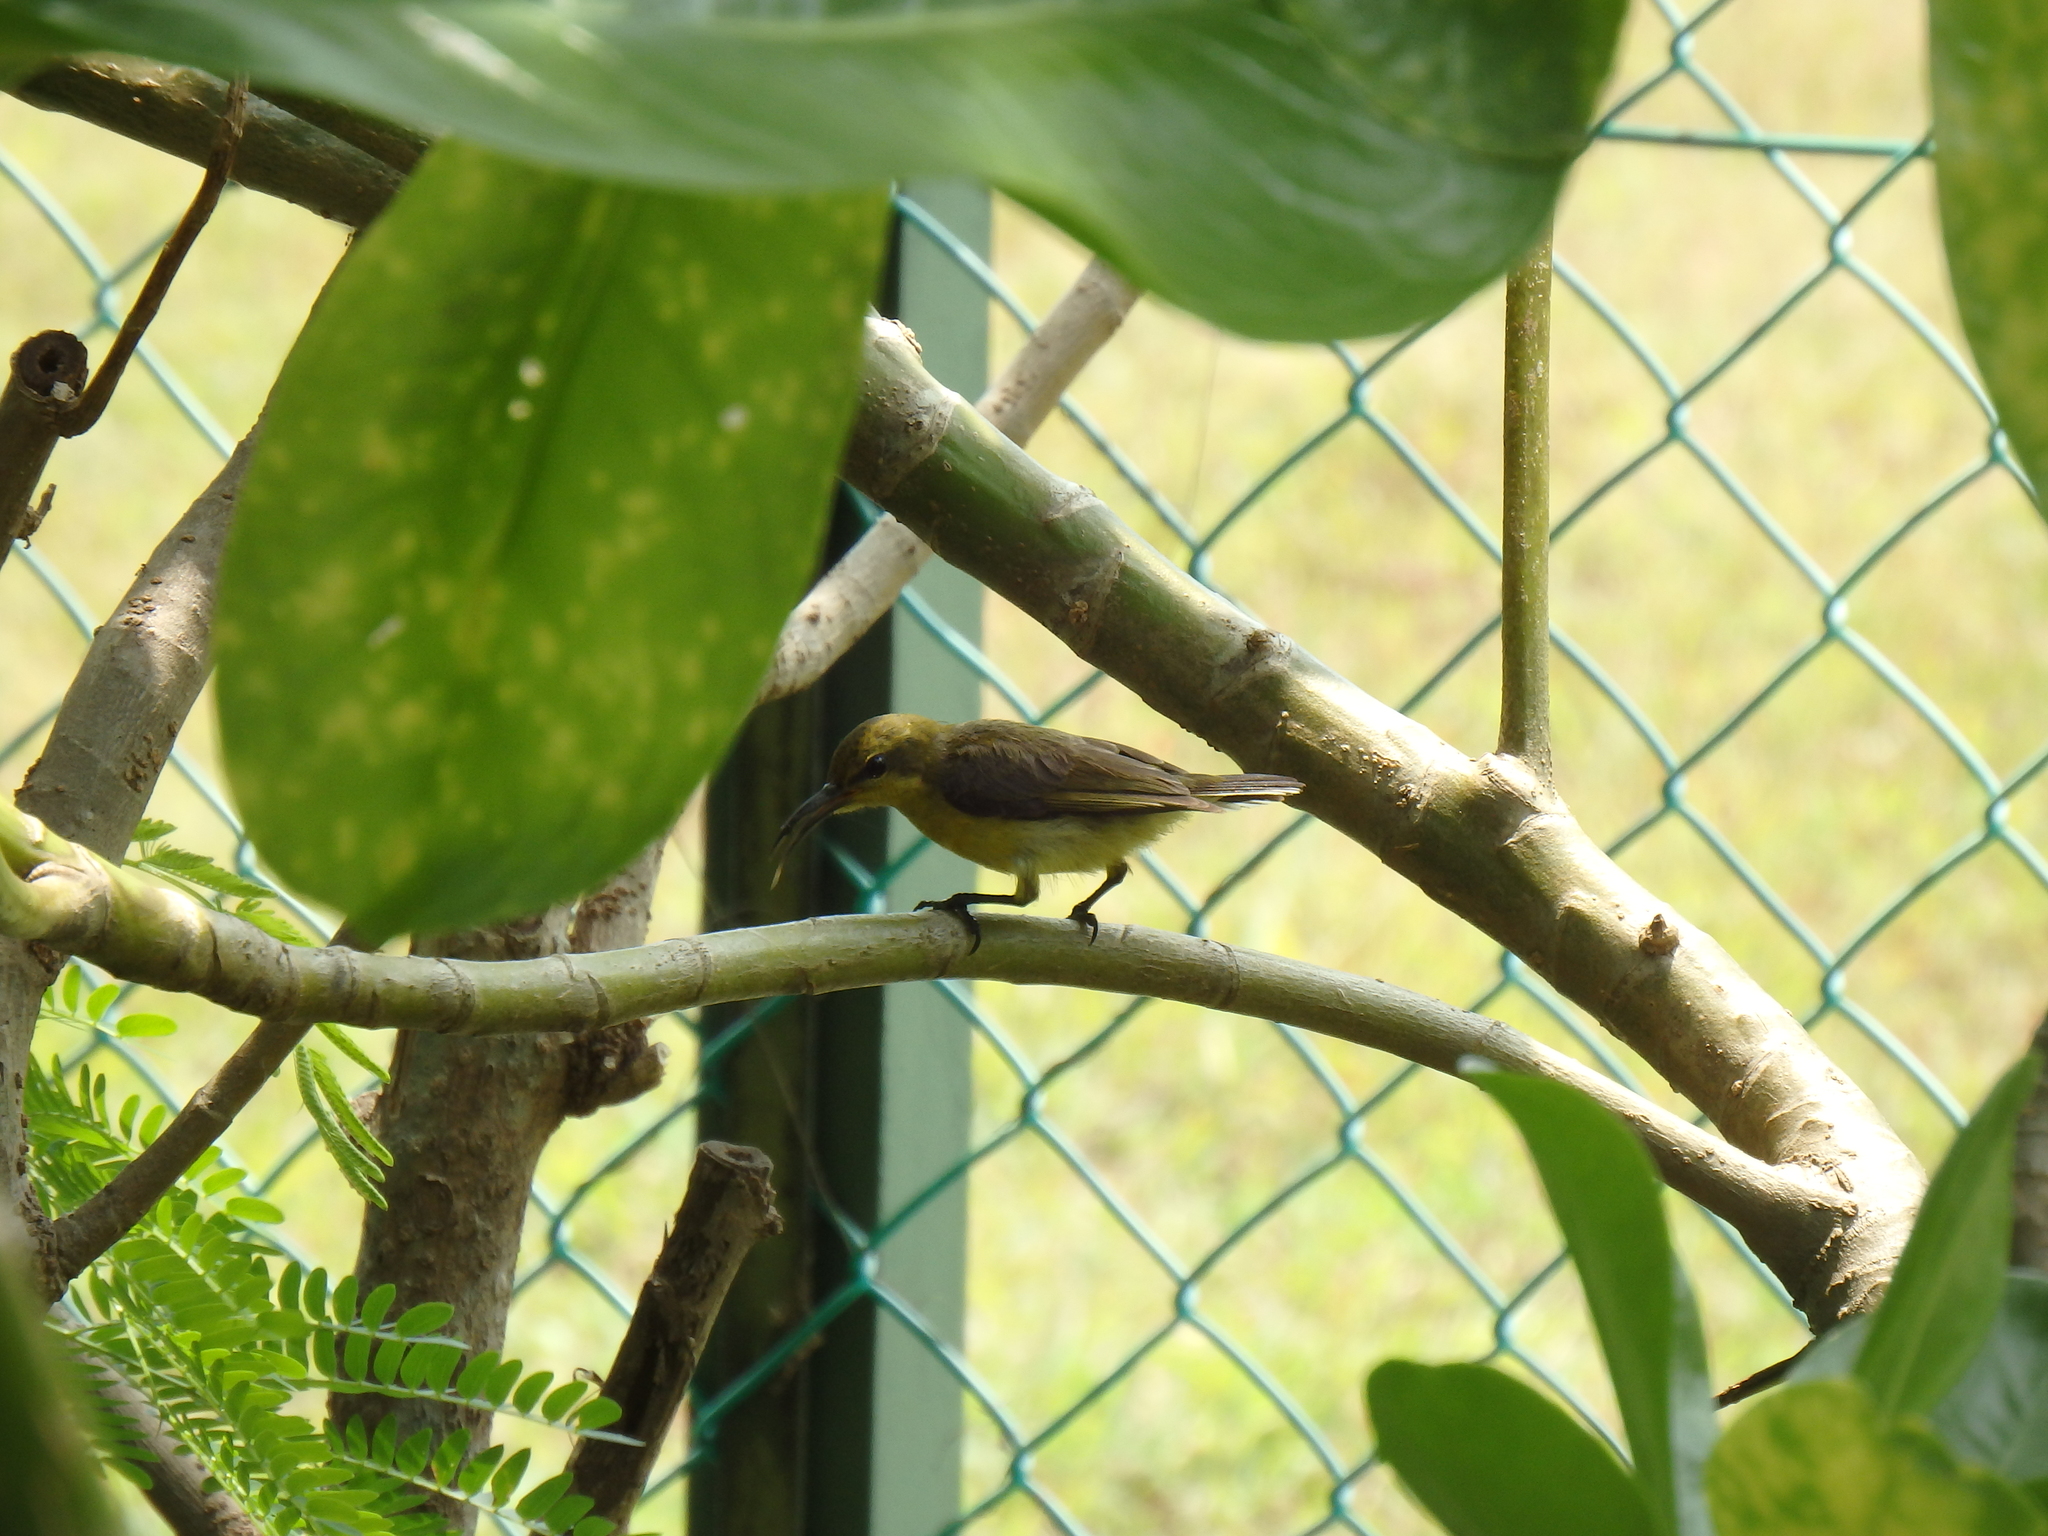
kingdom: Animalia
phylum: Chordata
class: Aves
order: Passeriformes
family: Nectariniidae
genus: Cinnyris
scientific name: Cinnyris
